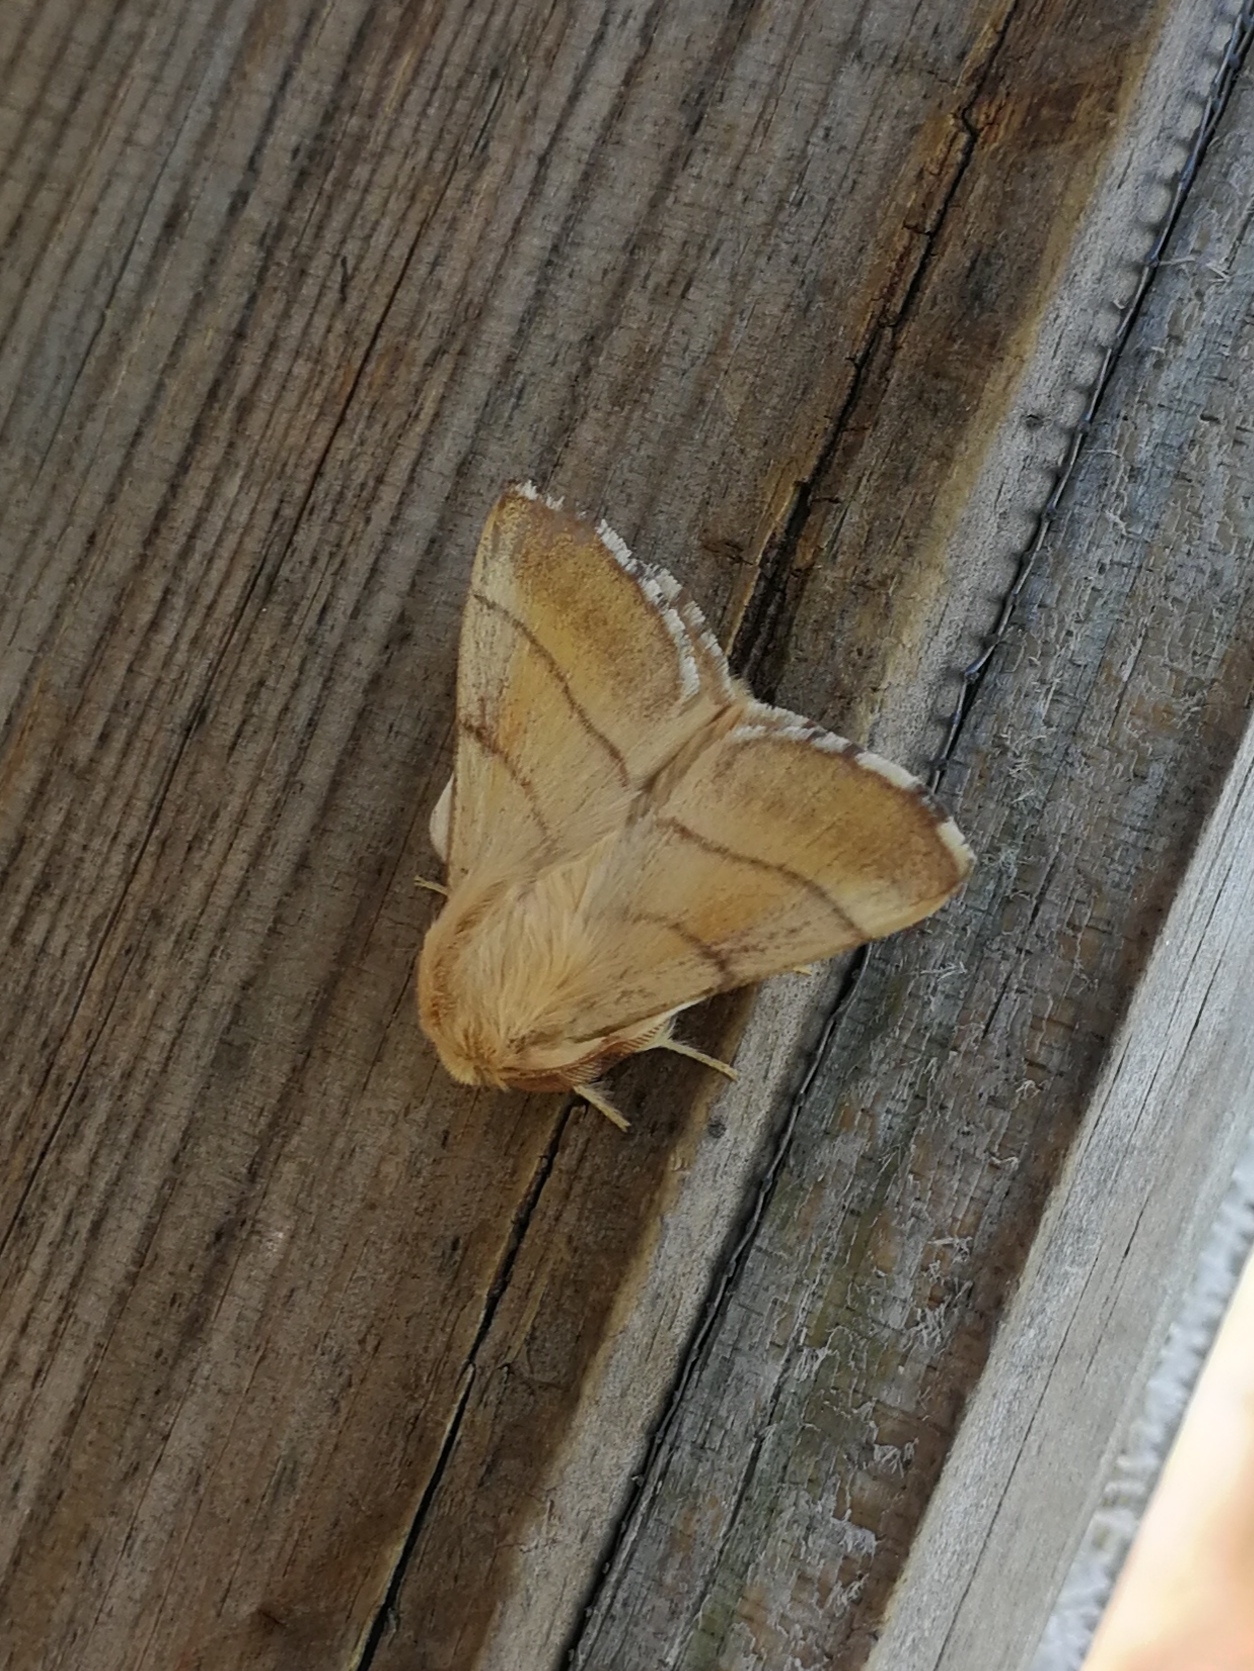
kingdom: Animalia
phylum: Arthropoda
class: Insecta
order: Lepidoptera
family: Lasiocampidae
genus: Malacosoma
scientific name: Malacosoma neustria
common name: The lackey
